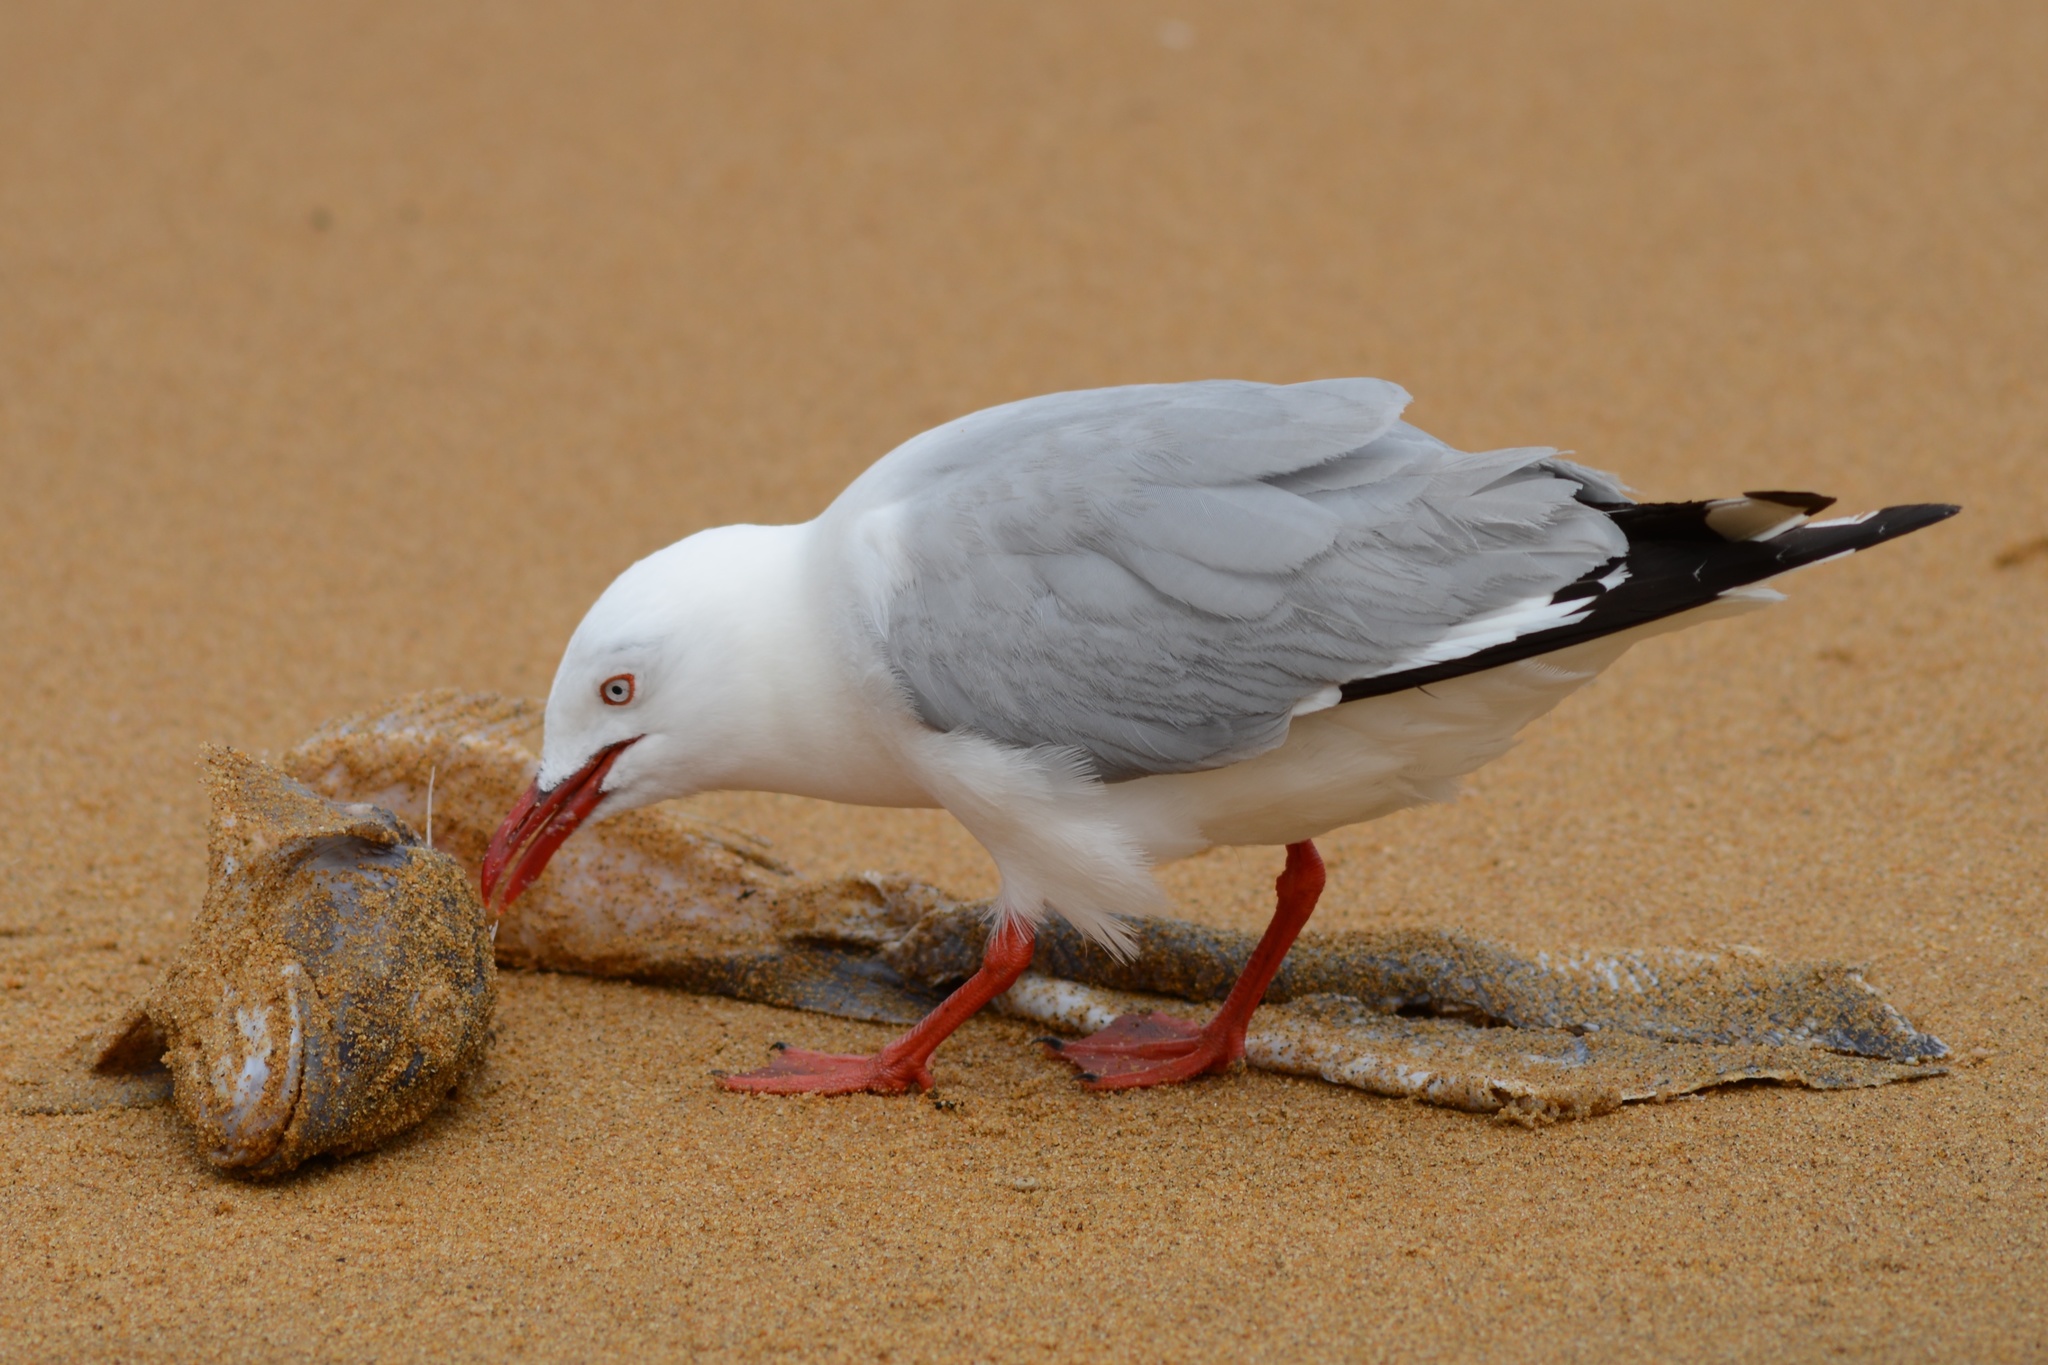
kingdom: Animalia
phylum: Chordata
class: Aves
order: Charadriiformes
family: Laridae
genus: Chroicocephalus
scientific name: Chroicocephalus novaehollandiae
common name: Silver gull
